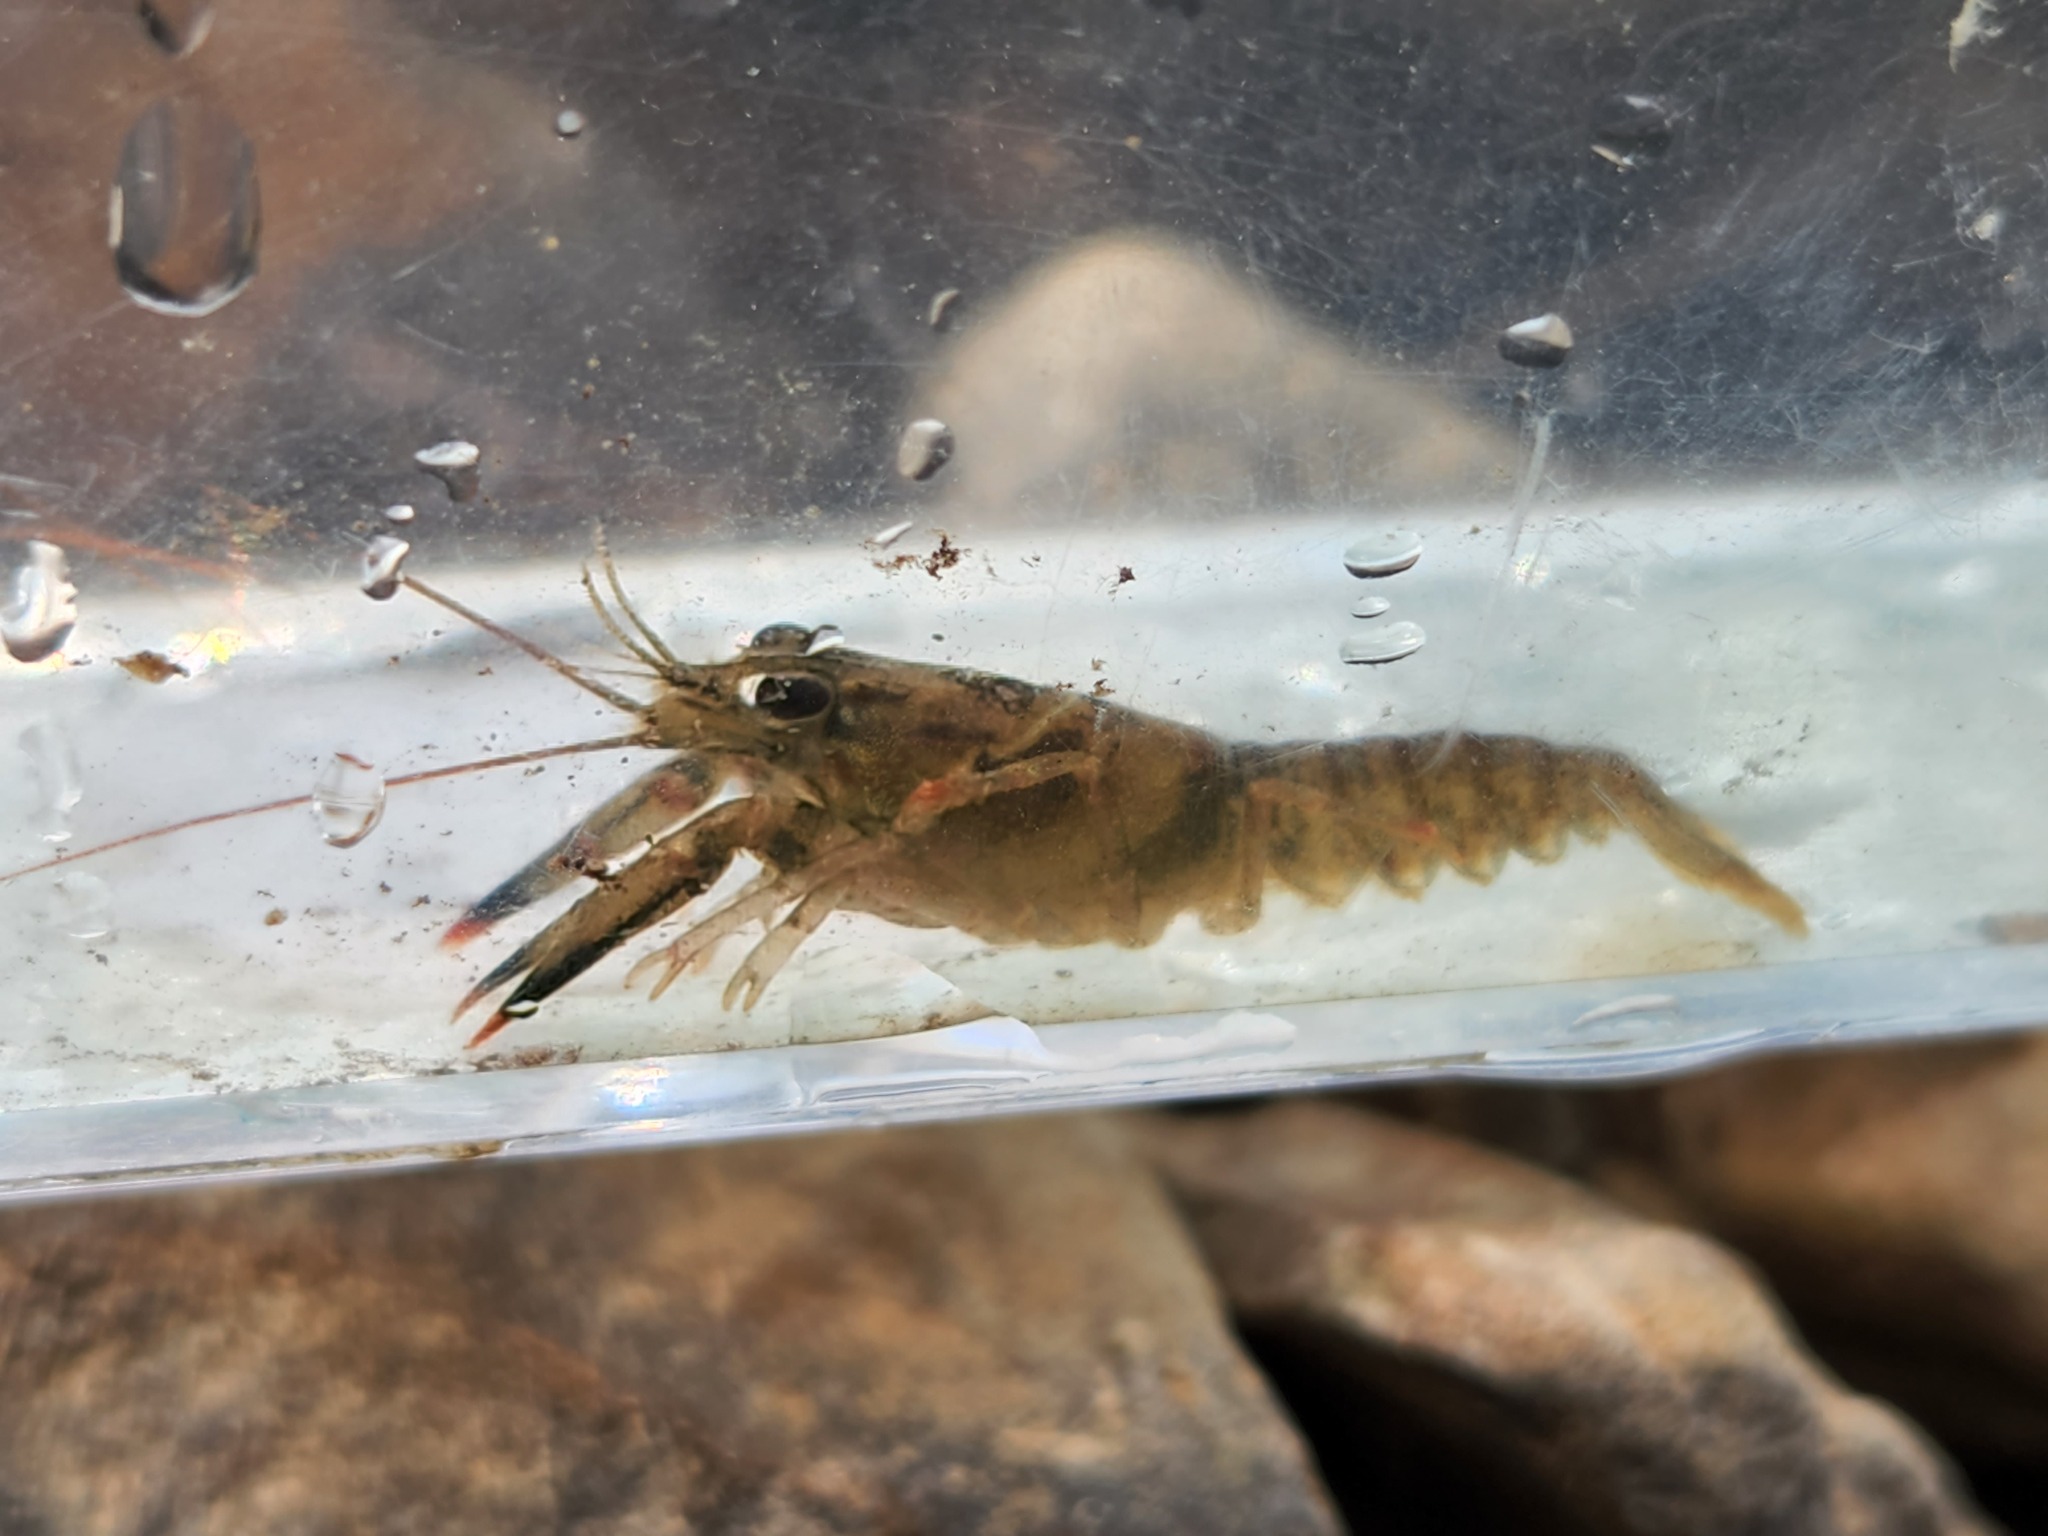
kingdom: Animalia
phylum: Arthropoda
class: Malacostraca
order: Decapoda
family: Cambaridae
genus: Faxonius
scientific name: Faxonius placidus
